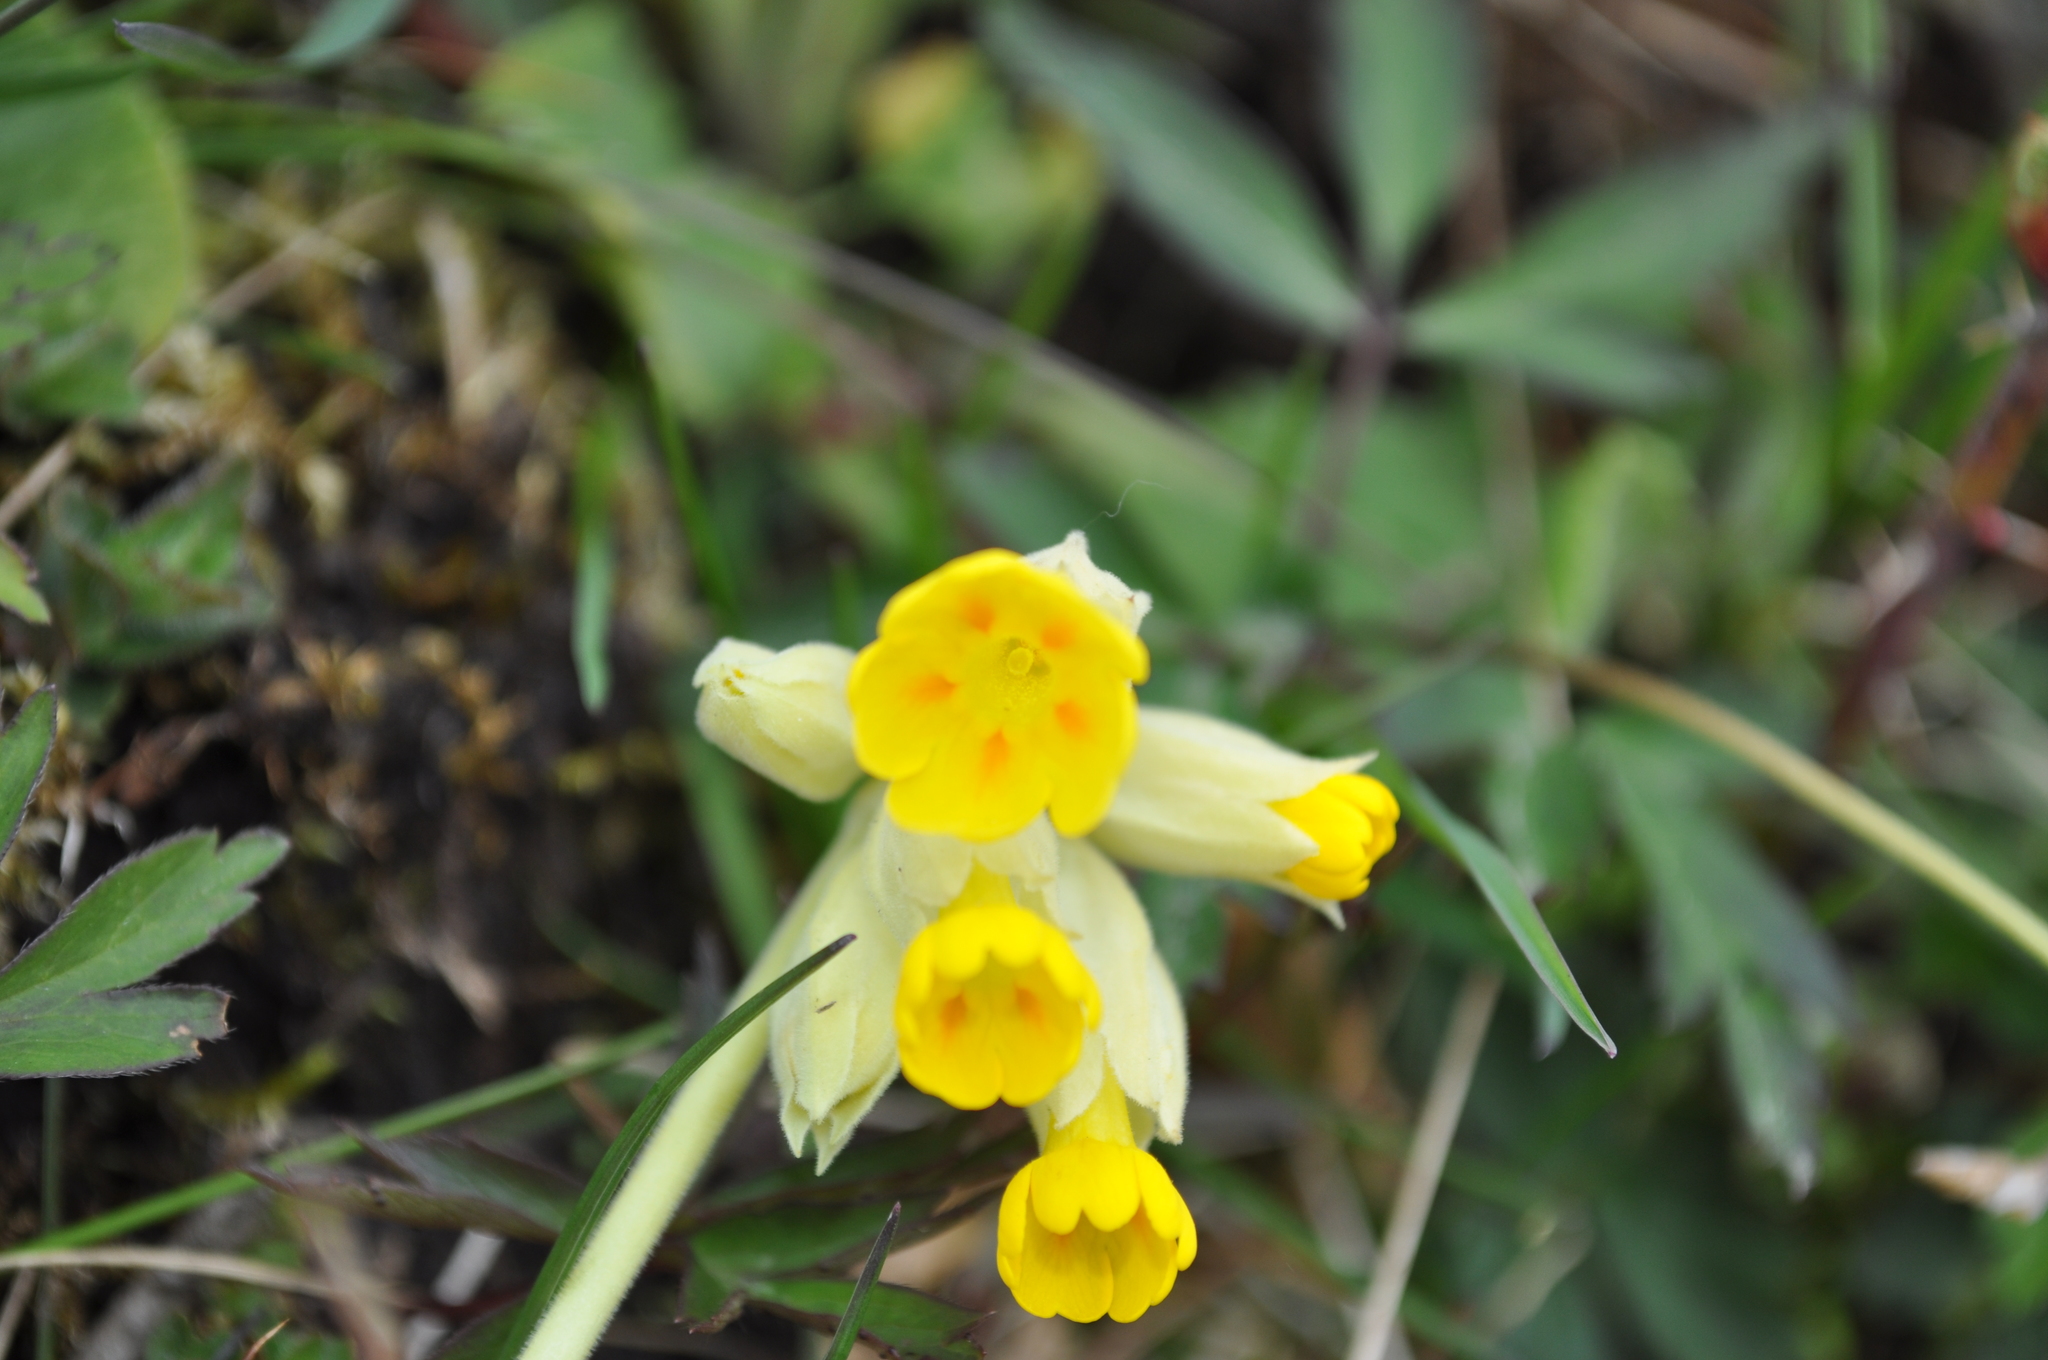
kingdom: Plantae
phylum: Tracheophyta
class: Magnoliopsida
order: Ericales
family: Primulaceae
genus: Primula
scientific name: Primula veris
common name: Cowslip
